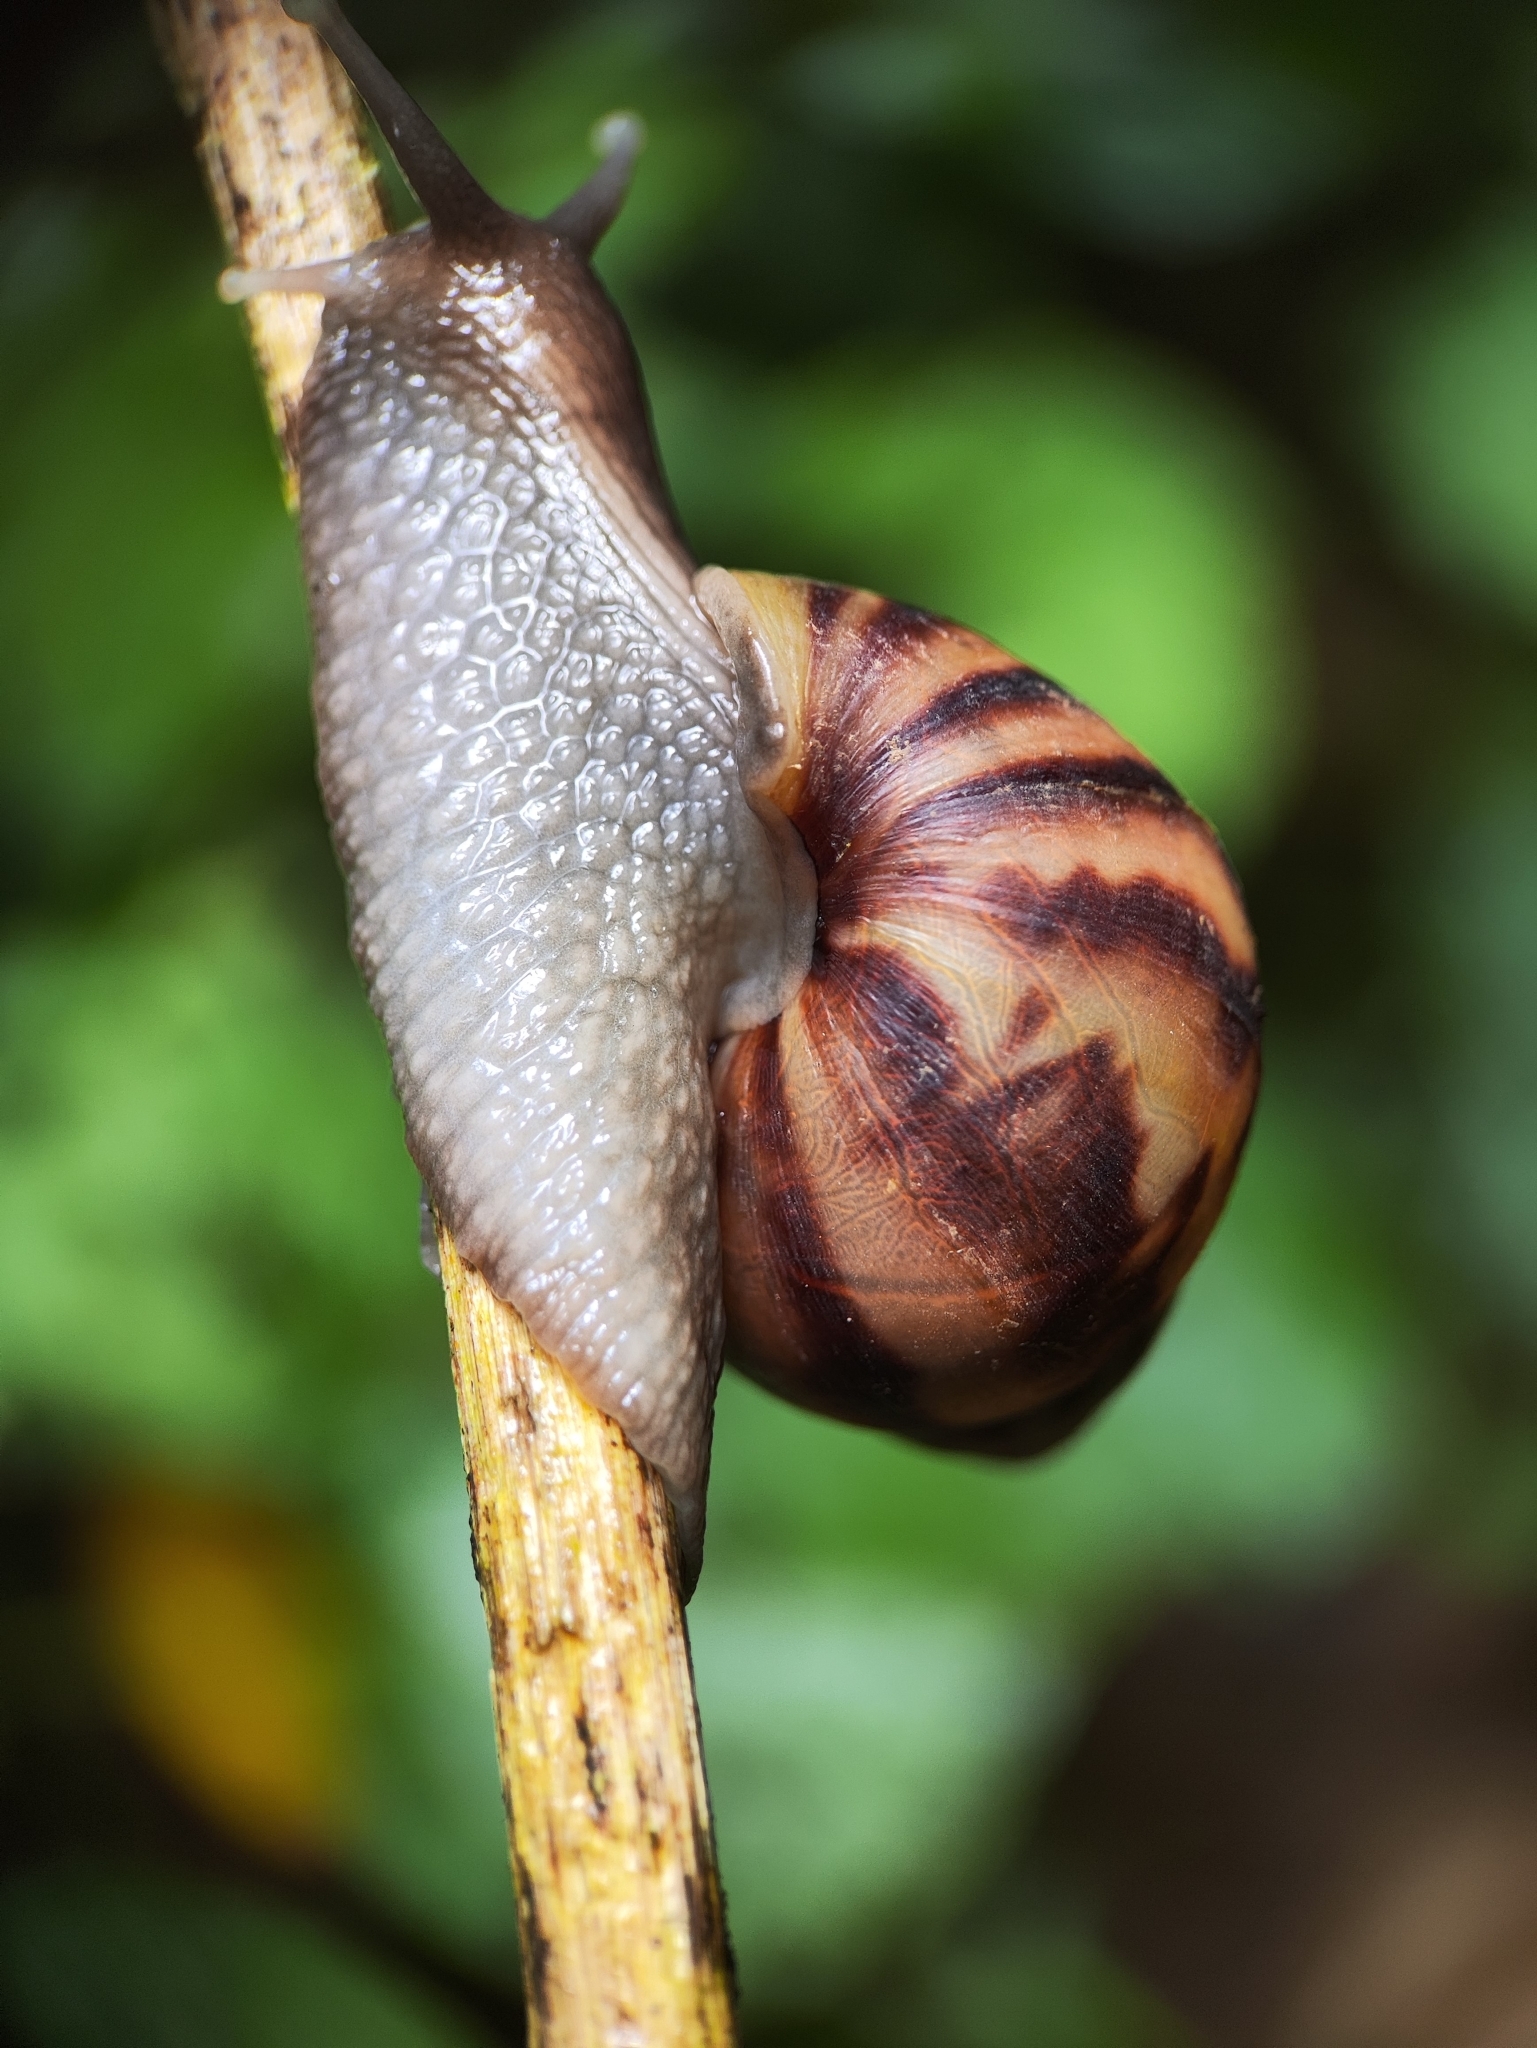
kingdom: Animalia
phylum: Mollusca
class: Gastropoda
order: Stylommatophora
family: Achatinidae
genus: Lissachatina
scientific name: Lissachatina fulica
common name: Giant african snail
